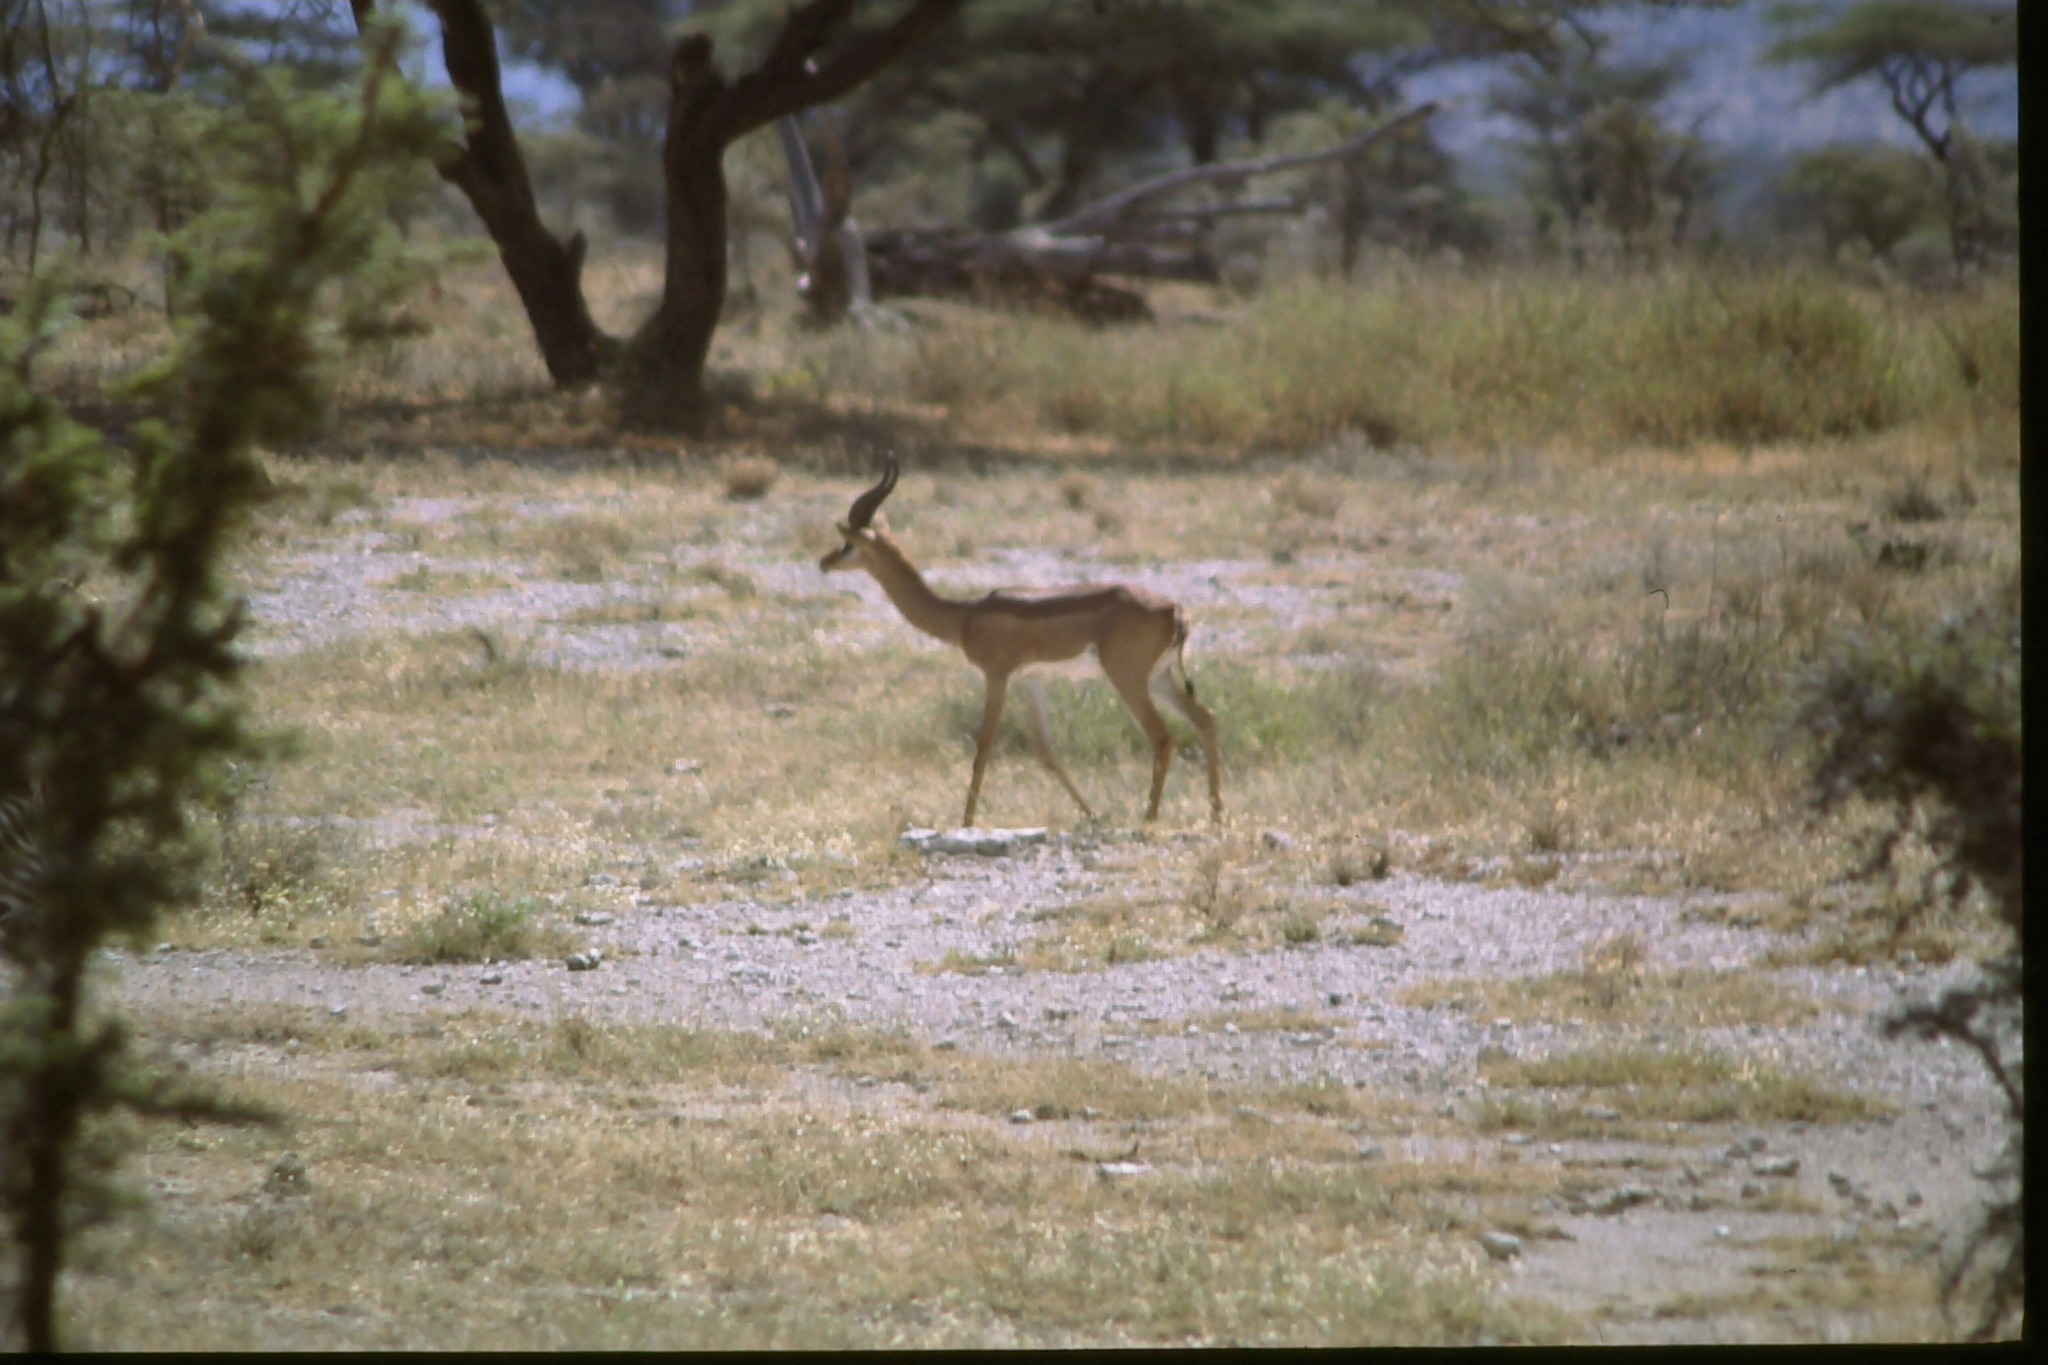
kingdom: Animalia
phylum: Chordata
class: Mammalia
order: Artiodactyla
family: Bovidae
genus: Litocranius
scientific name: Litocranius walleri
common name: Gerenuk
